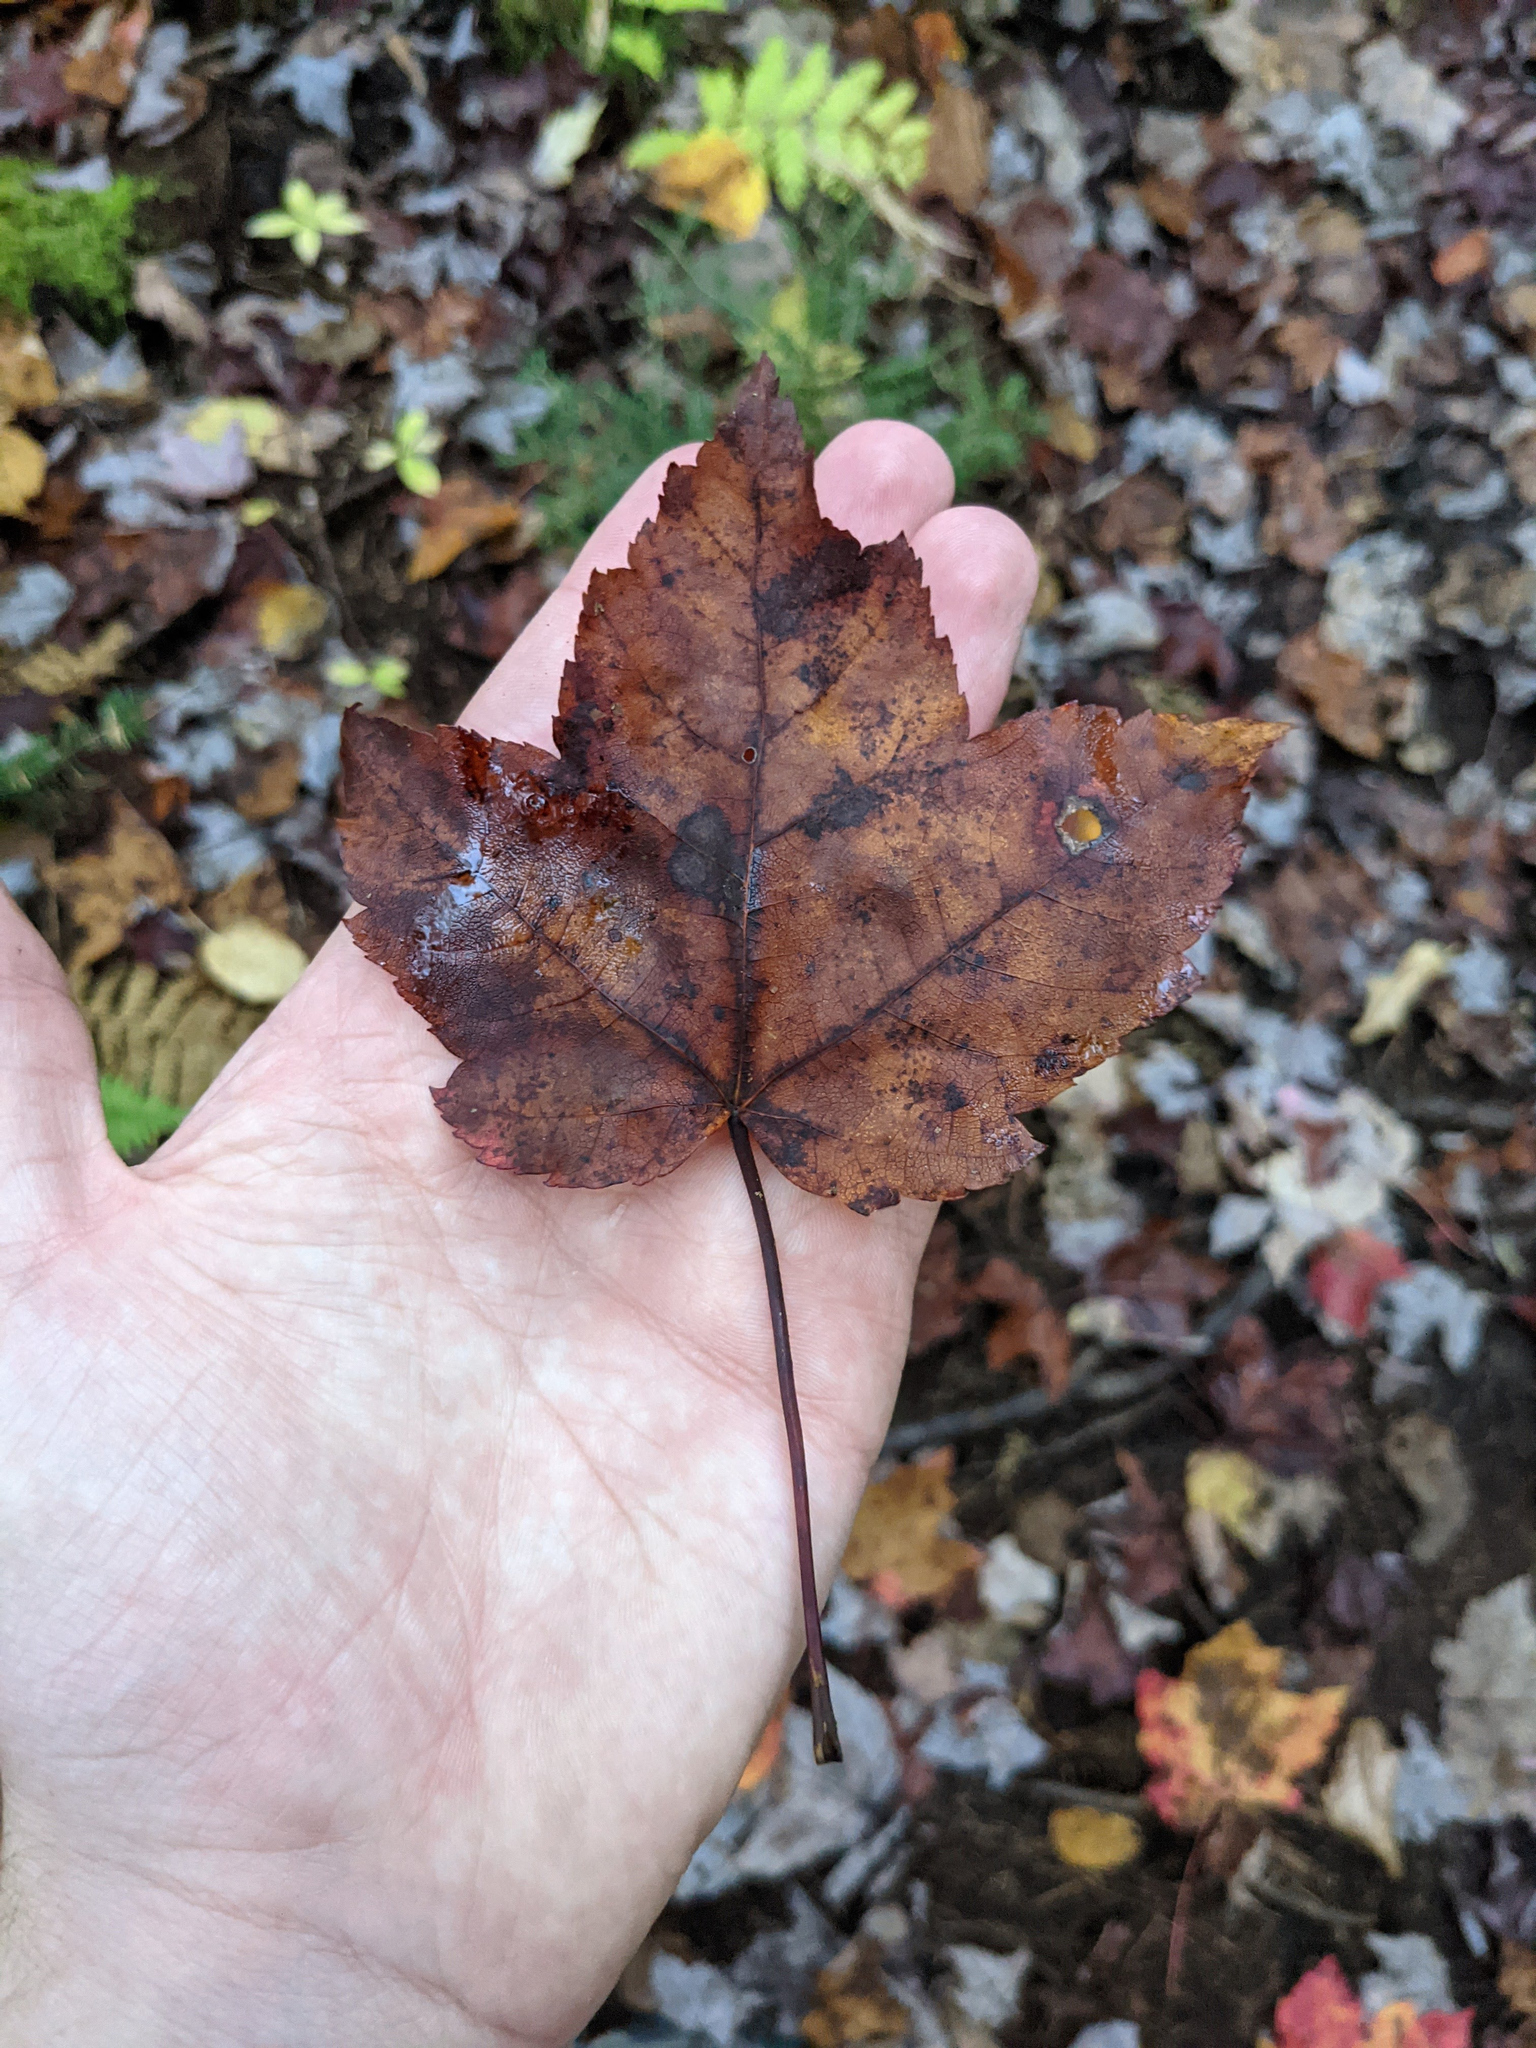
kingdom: Plantae
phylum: Tracheophyta
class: Magnoliopsida
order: Sapindales
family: Sapindaceae
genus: Acer
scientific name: Acer rubrum
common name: Red maple
